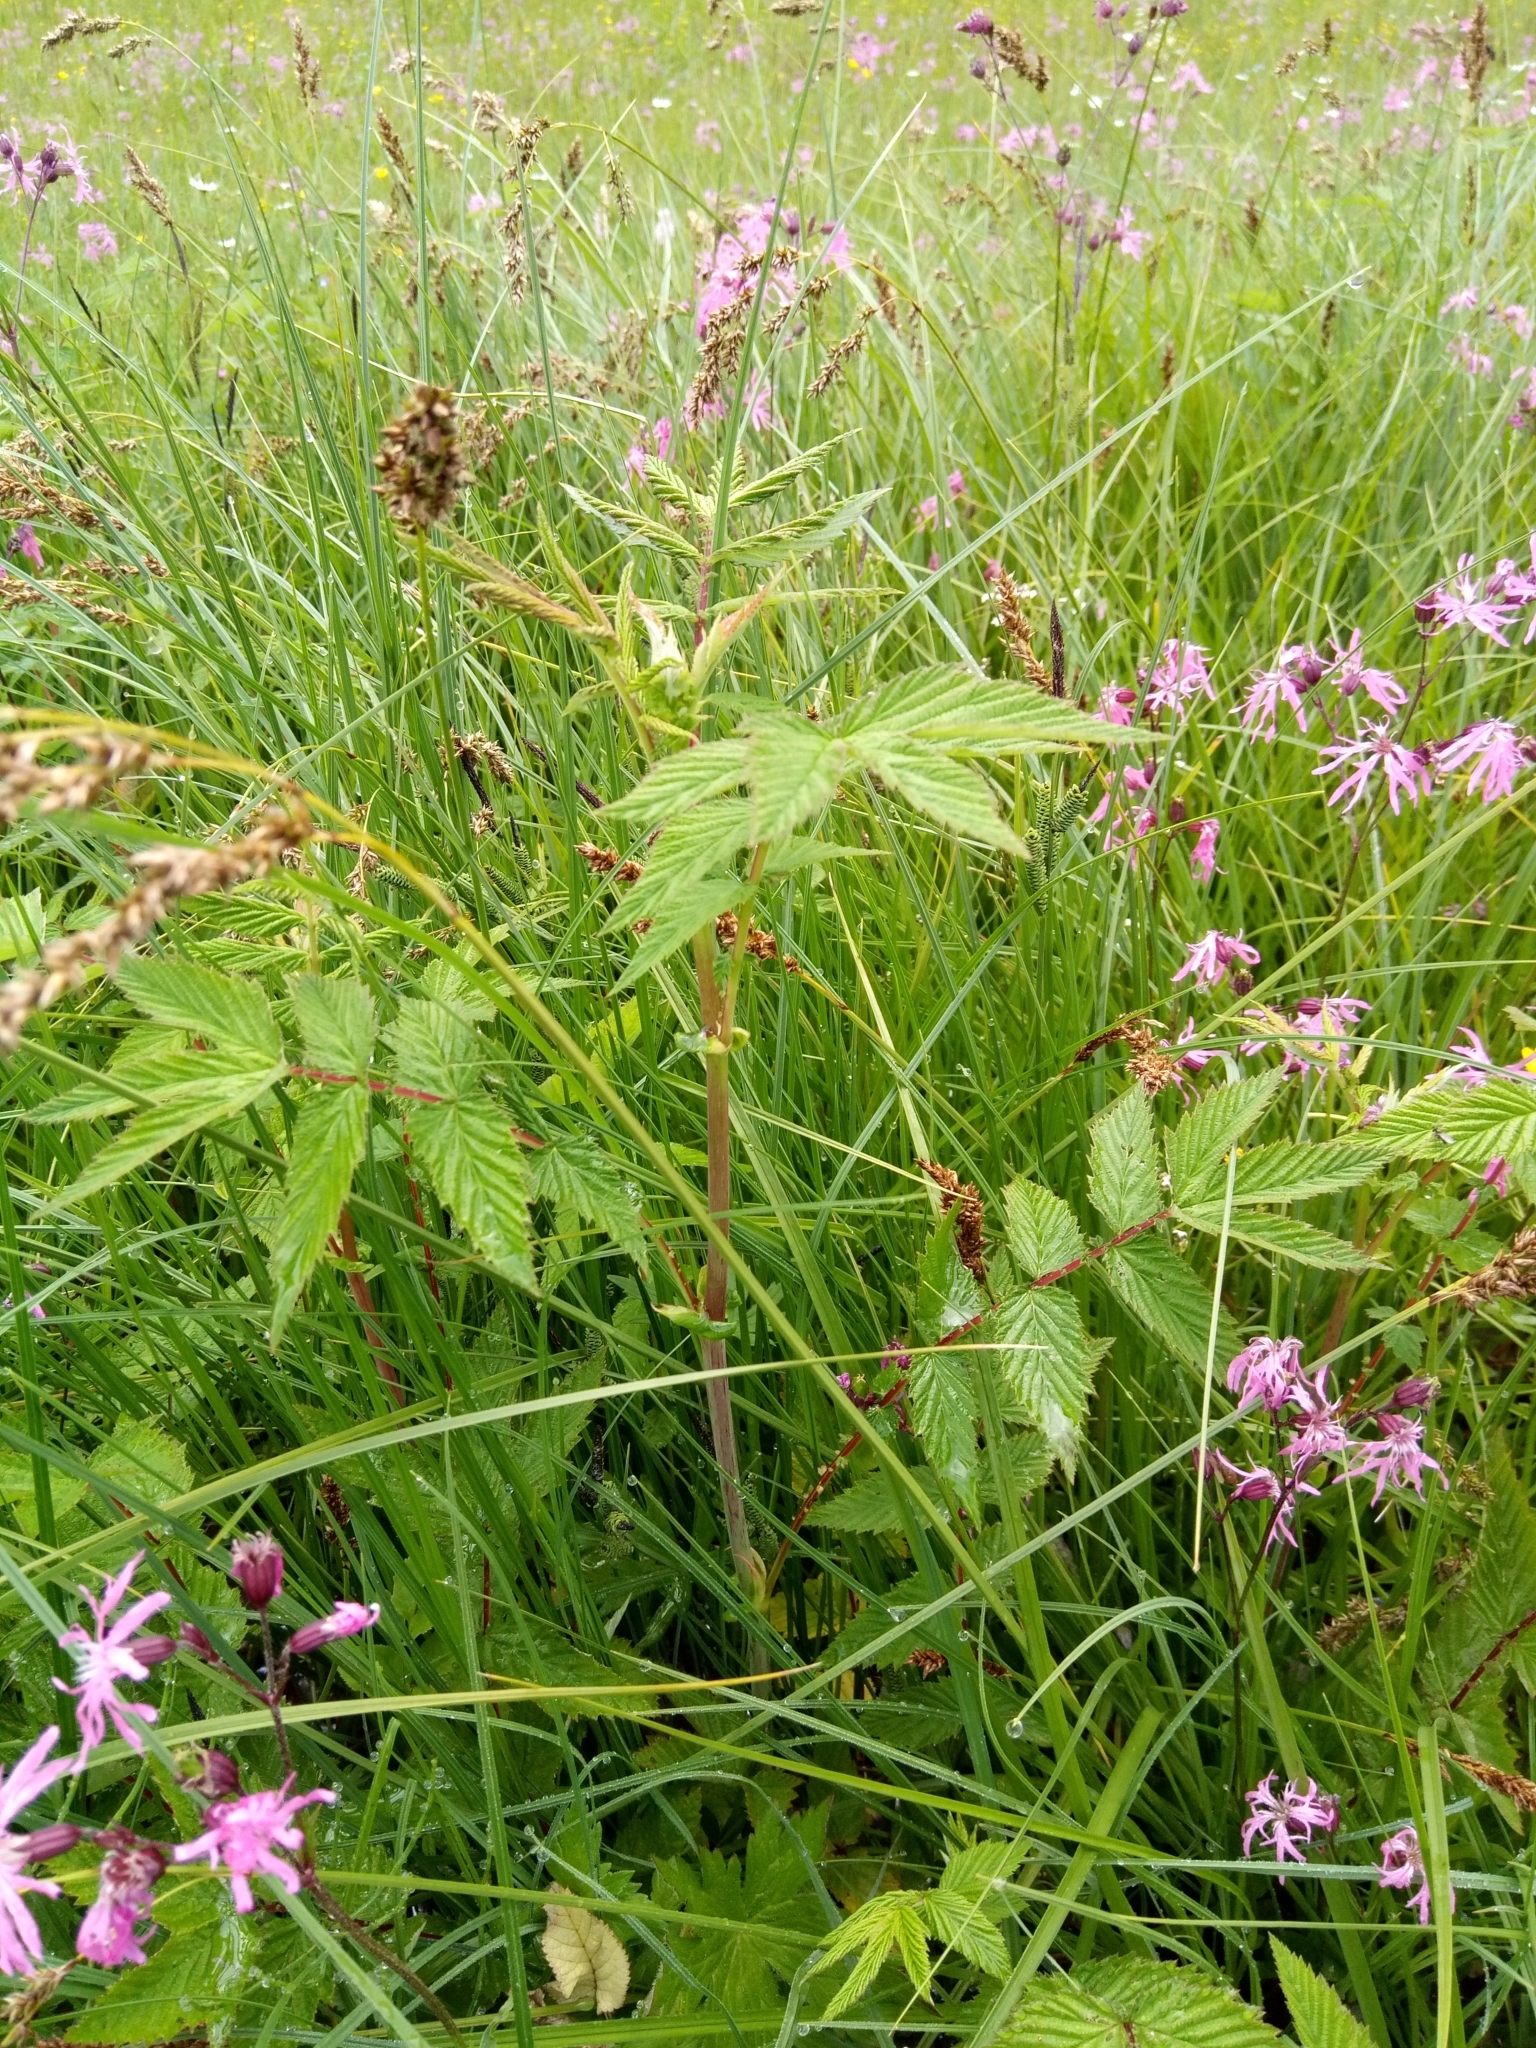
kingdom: Plantae
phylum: Tracheophyta
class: Magnoliopsida
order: Rosales
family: Rosaceae
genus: Filipendula
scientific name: Filipendula ulmaria
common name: Meadowsweet
